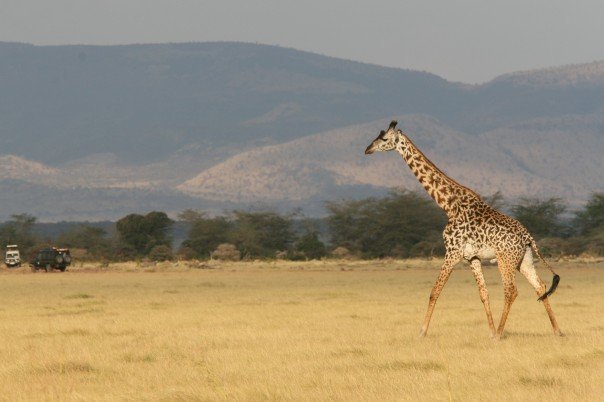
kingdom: Animalia
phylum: Chordata
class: Mammalia
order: Artiodactyla
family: Giraffidae
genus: Giraffa
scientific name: Giraffa tippelskirchi
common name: Masai giraffe
